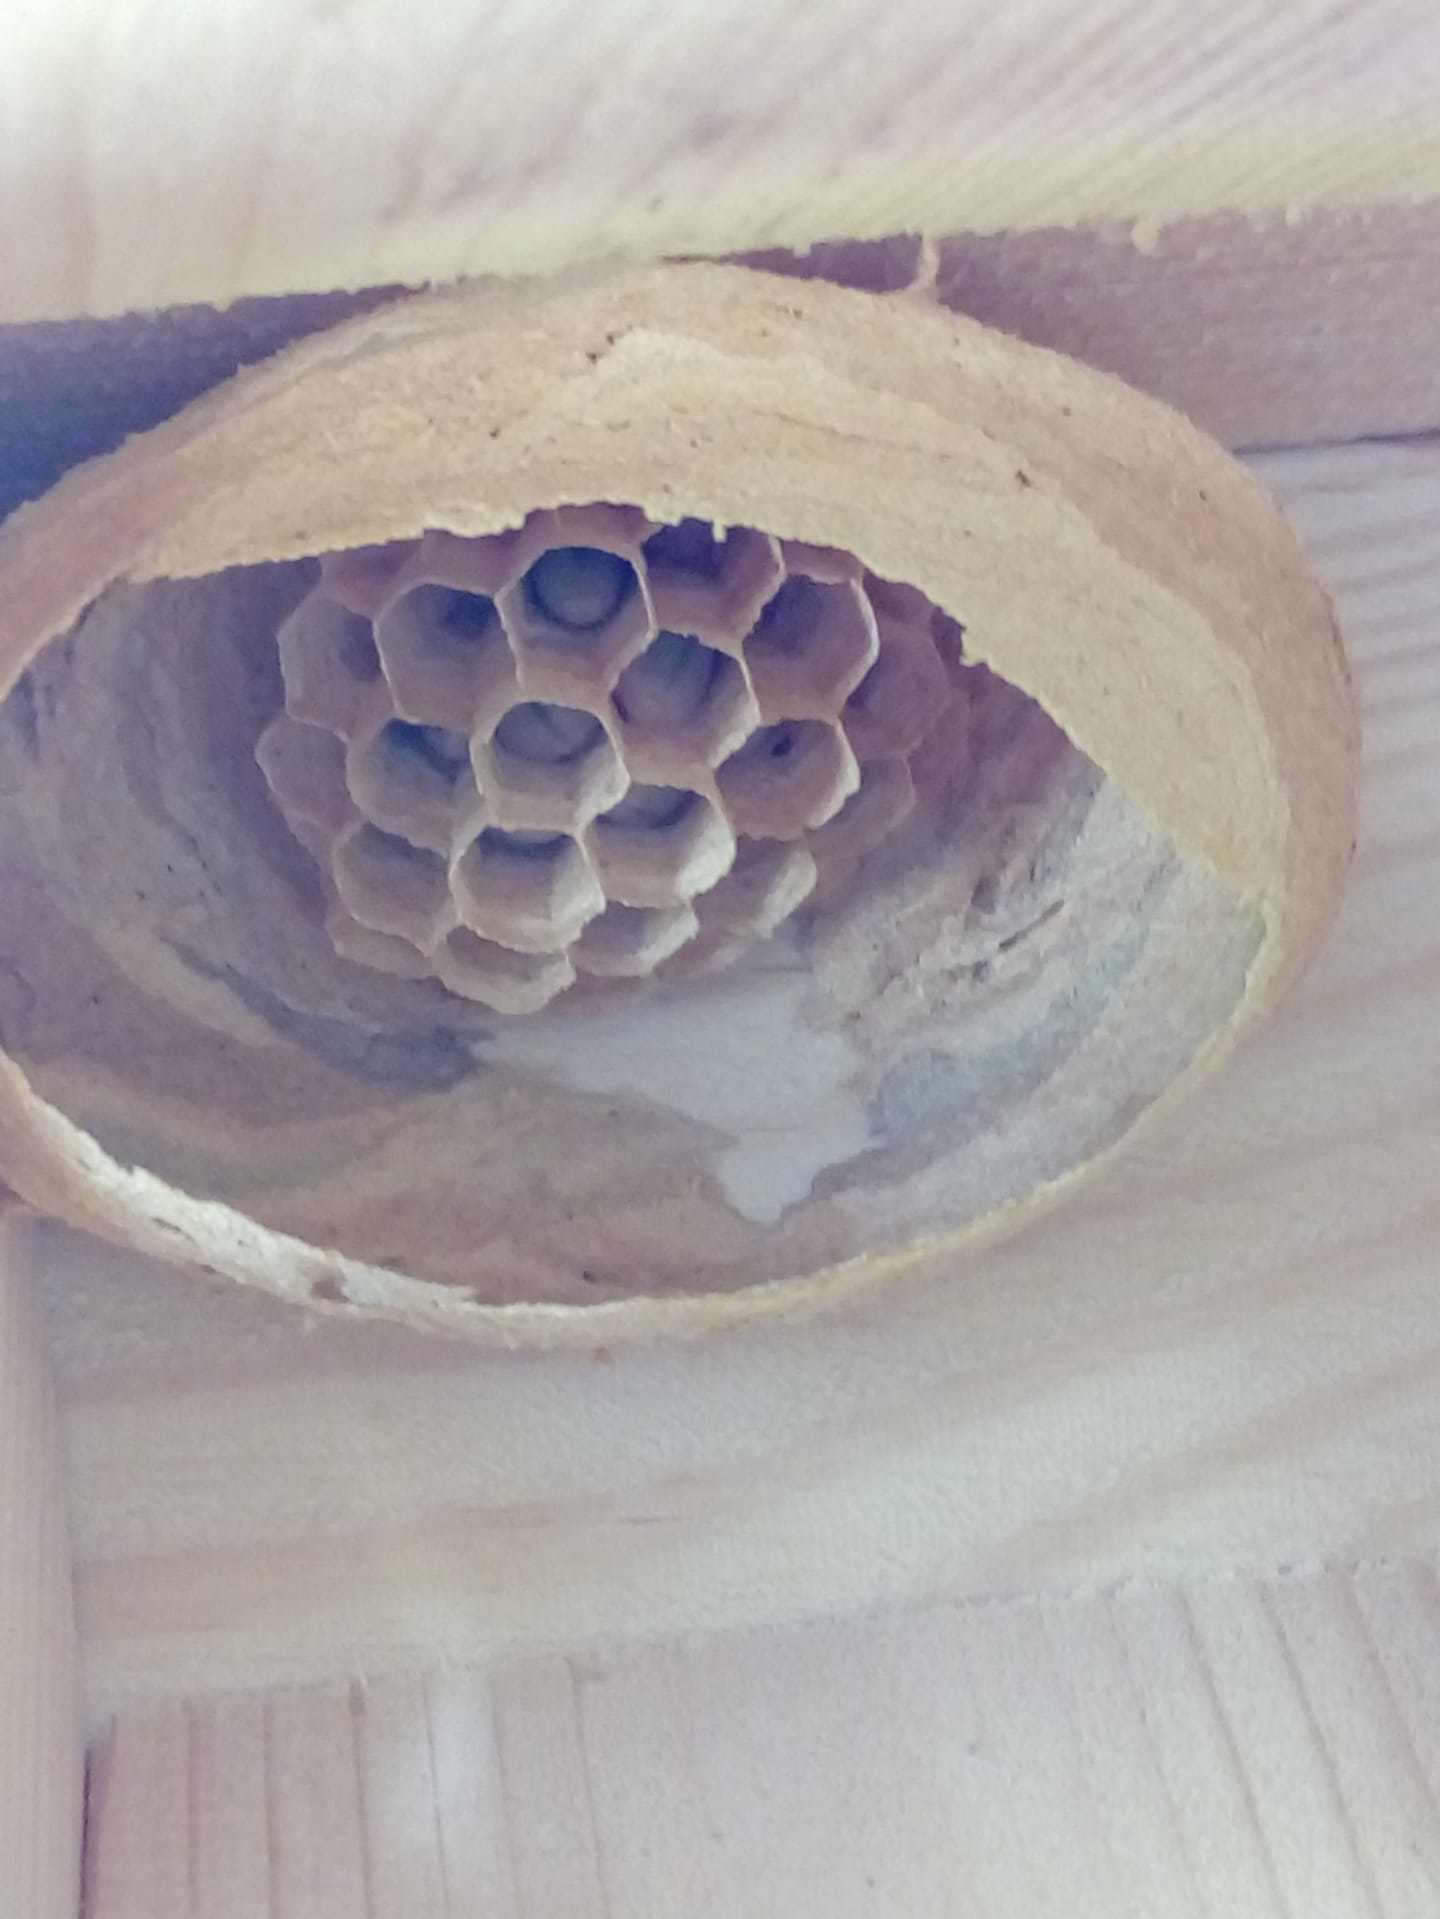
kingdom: Animalia
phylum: Arthropoda
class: Insecta
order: Hymenoptera
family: Vespidae
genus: Vespa
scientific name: Vespa crabro
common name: Hornet
